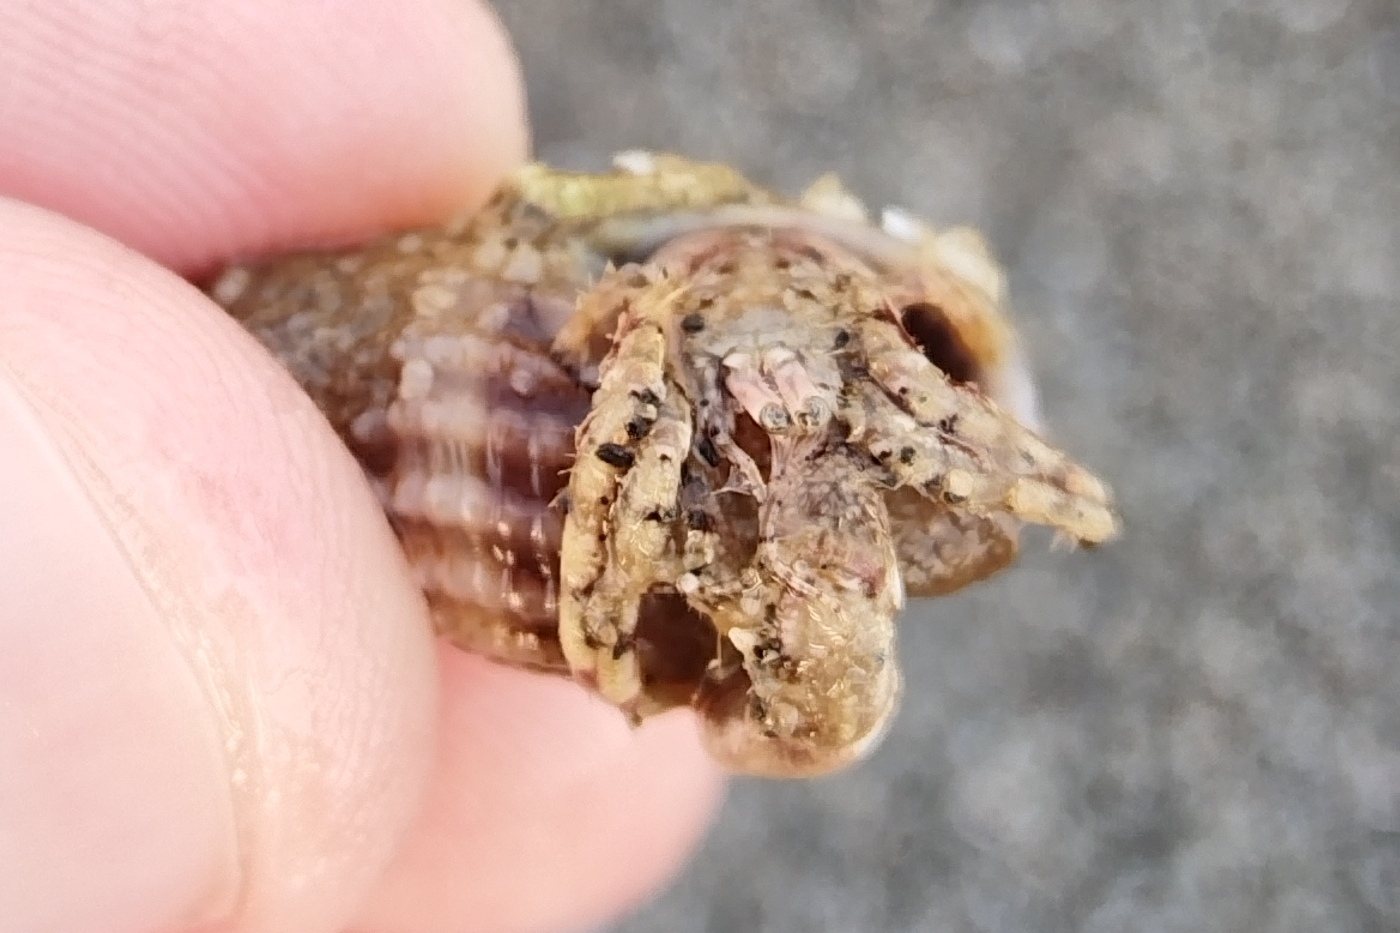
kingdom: Animalia
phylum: Arthropoda
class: Malacostraca
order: Decapoda
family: Diogenidae
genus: Diogenes
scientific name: Diogenes pugilator
